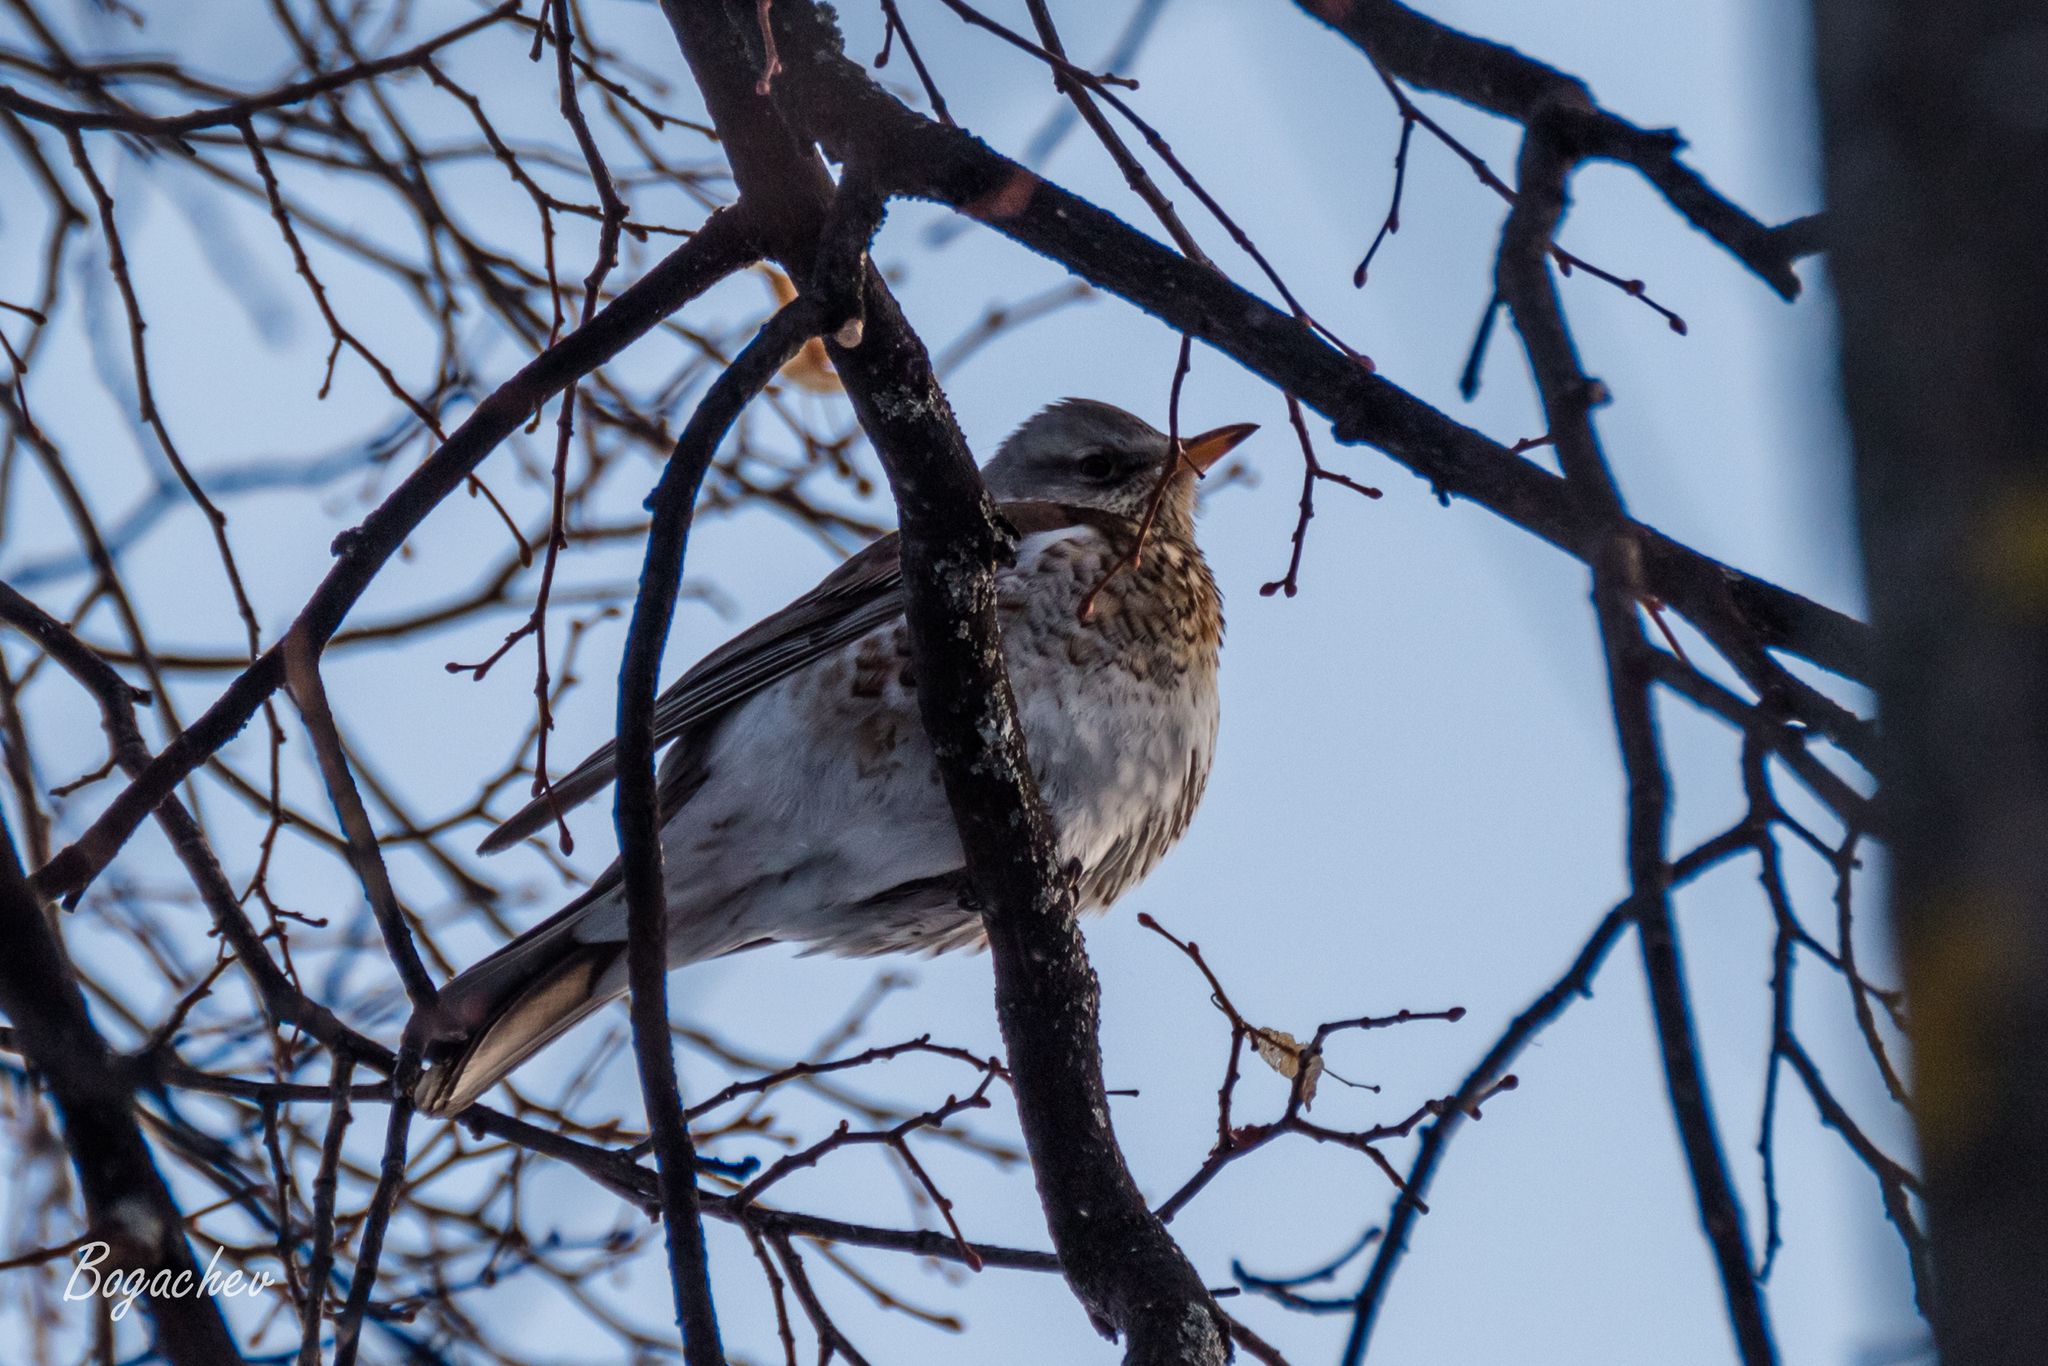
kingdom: Animalia
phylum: Chordata
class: Aves
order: Passeriformes
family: Turdidae
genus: Turdus
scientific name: Turdus pilaris
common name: Fieldfare
